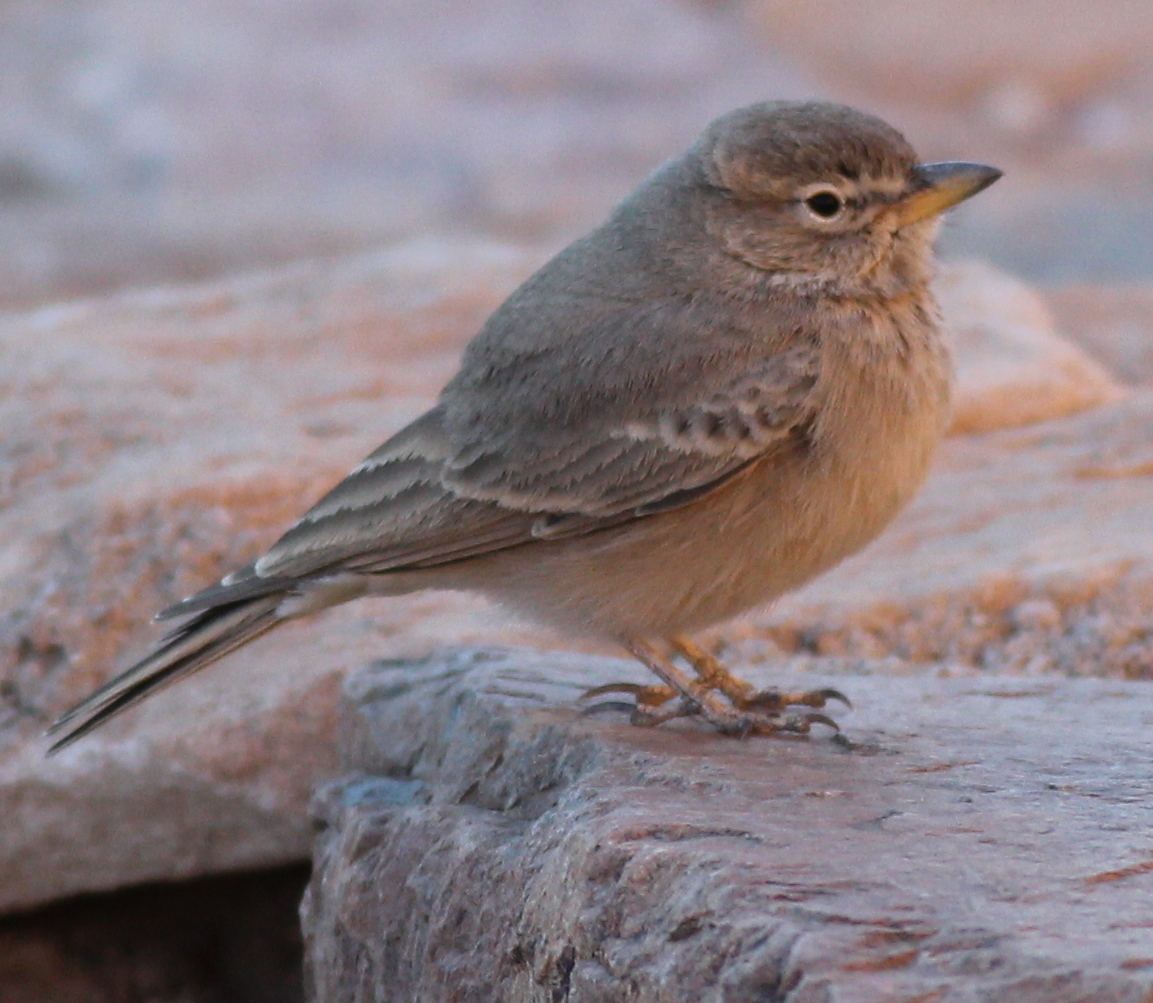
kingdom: Animalia
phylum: Chordata
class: Aves
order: Passeriformes
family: Alaudidae
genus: Ammomanes
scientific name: Ammomanes deserti
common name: Desert lark
